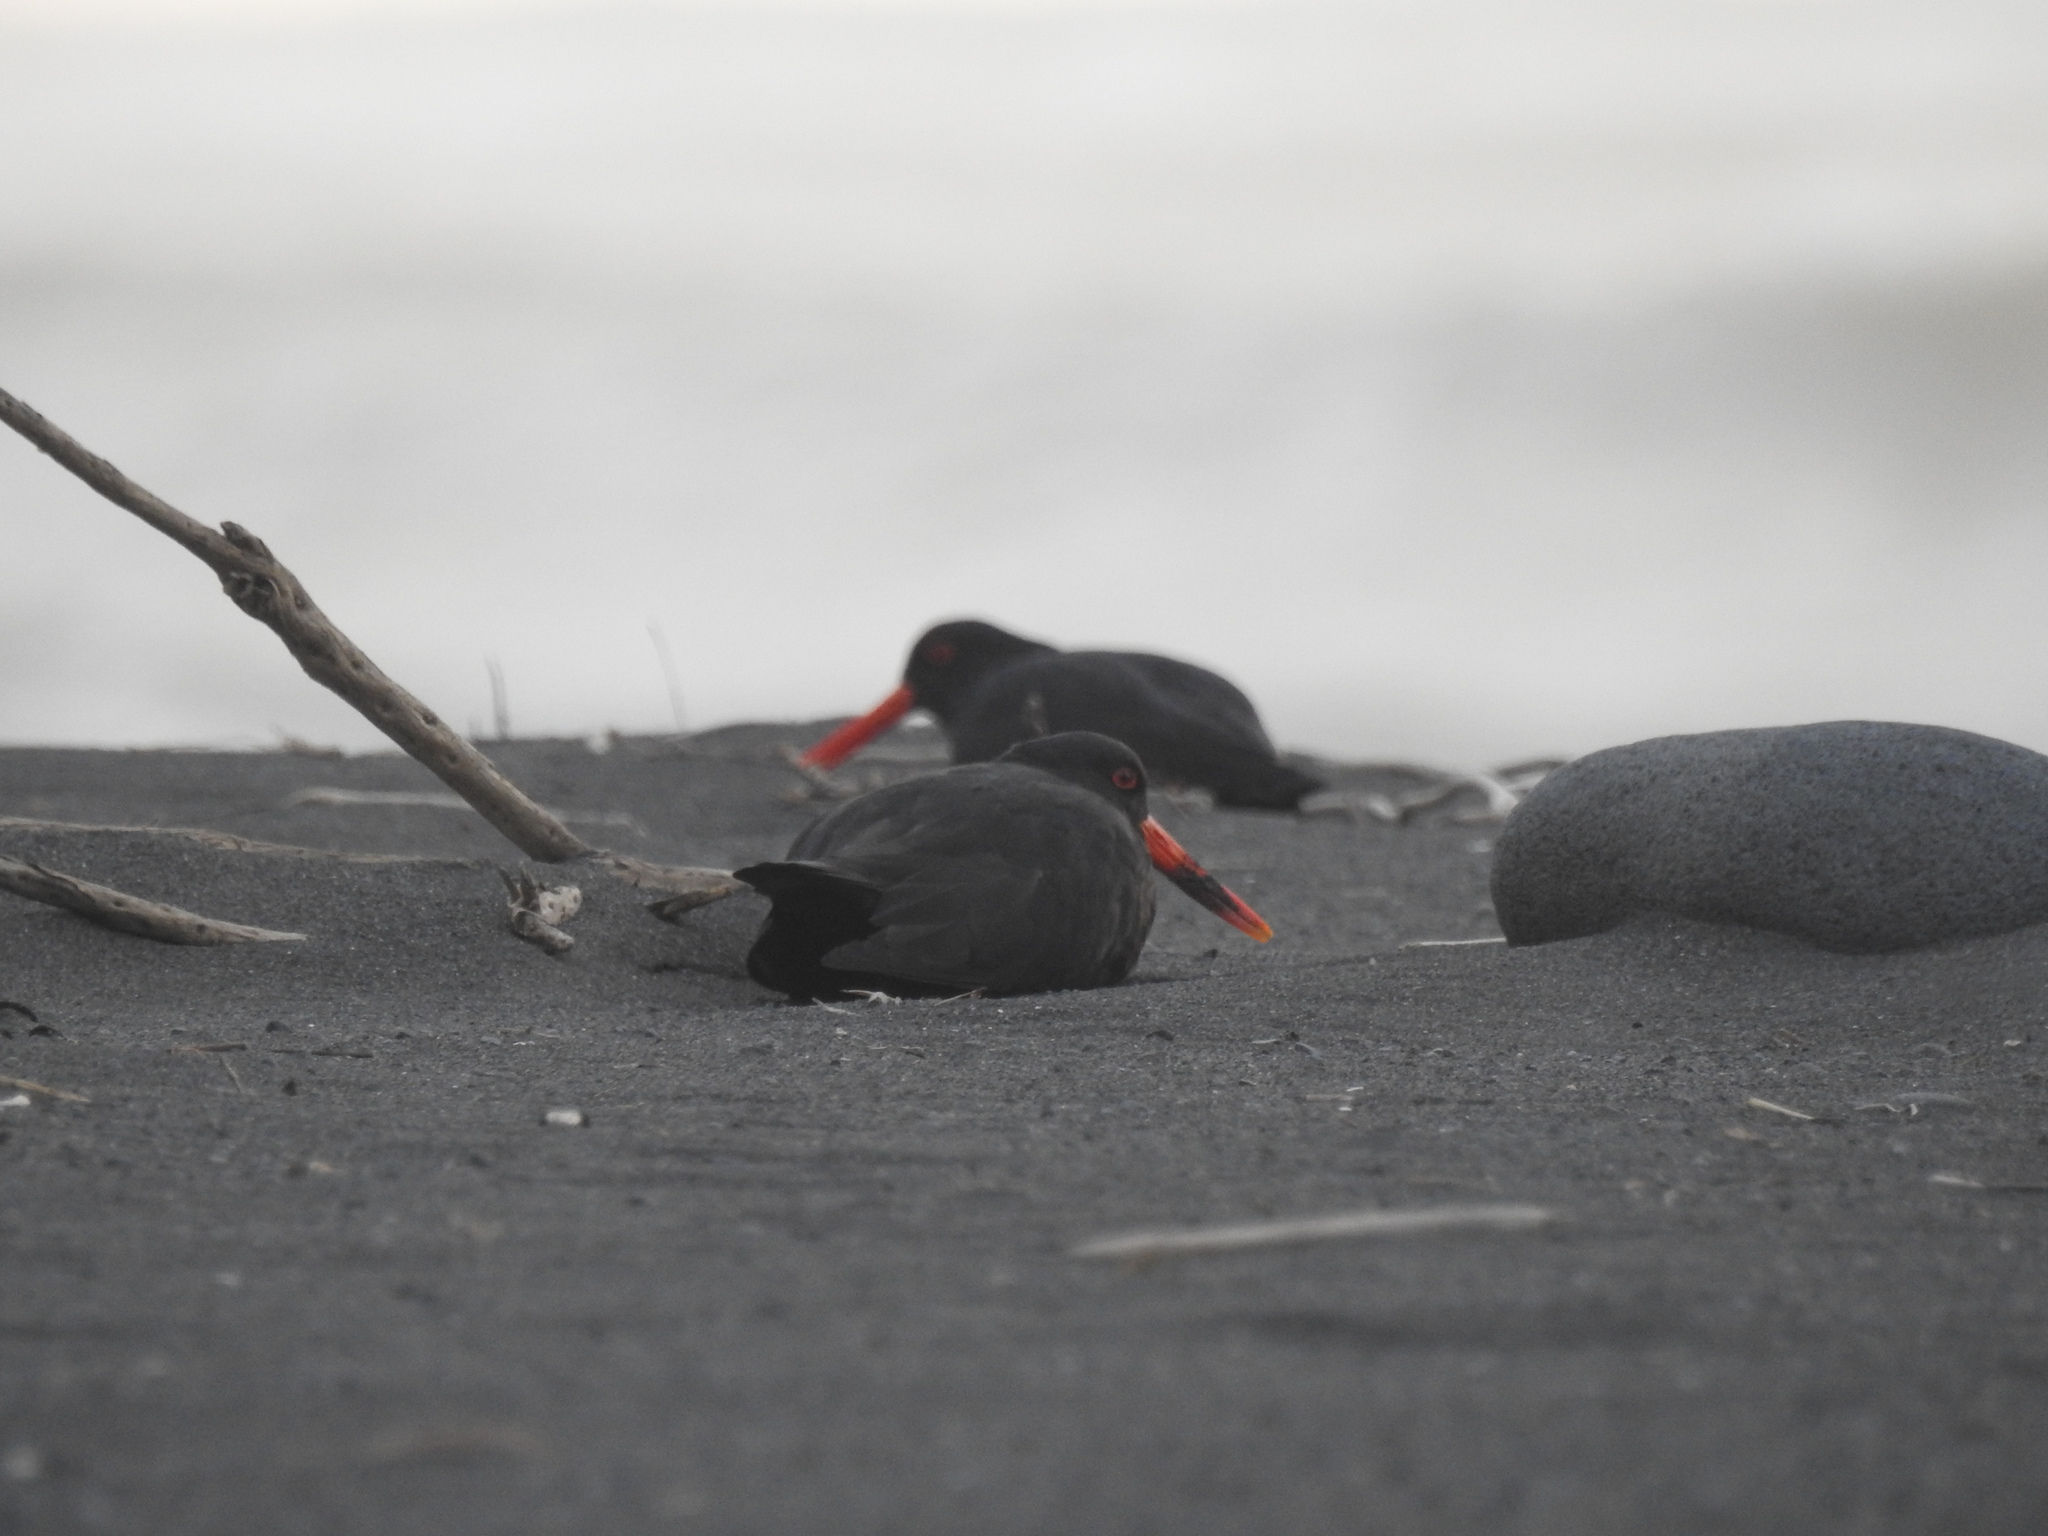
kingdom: Animalia
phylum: Chordata
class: Aves
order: Charadriiformes
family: Haematopodidae
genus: Haematopus
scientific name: Haematopus unicolor
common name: Variable oystercatcher
